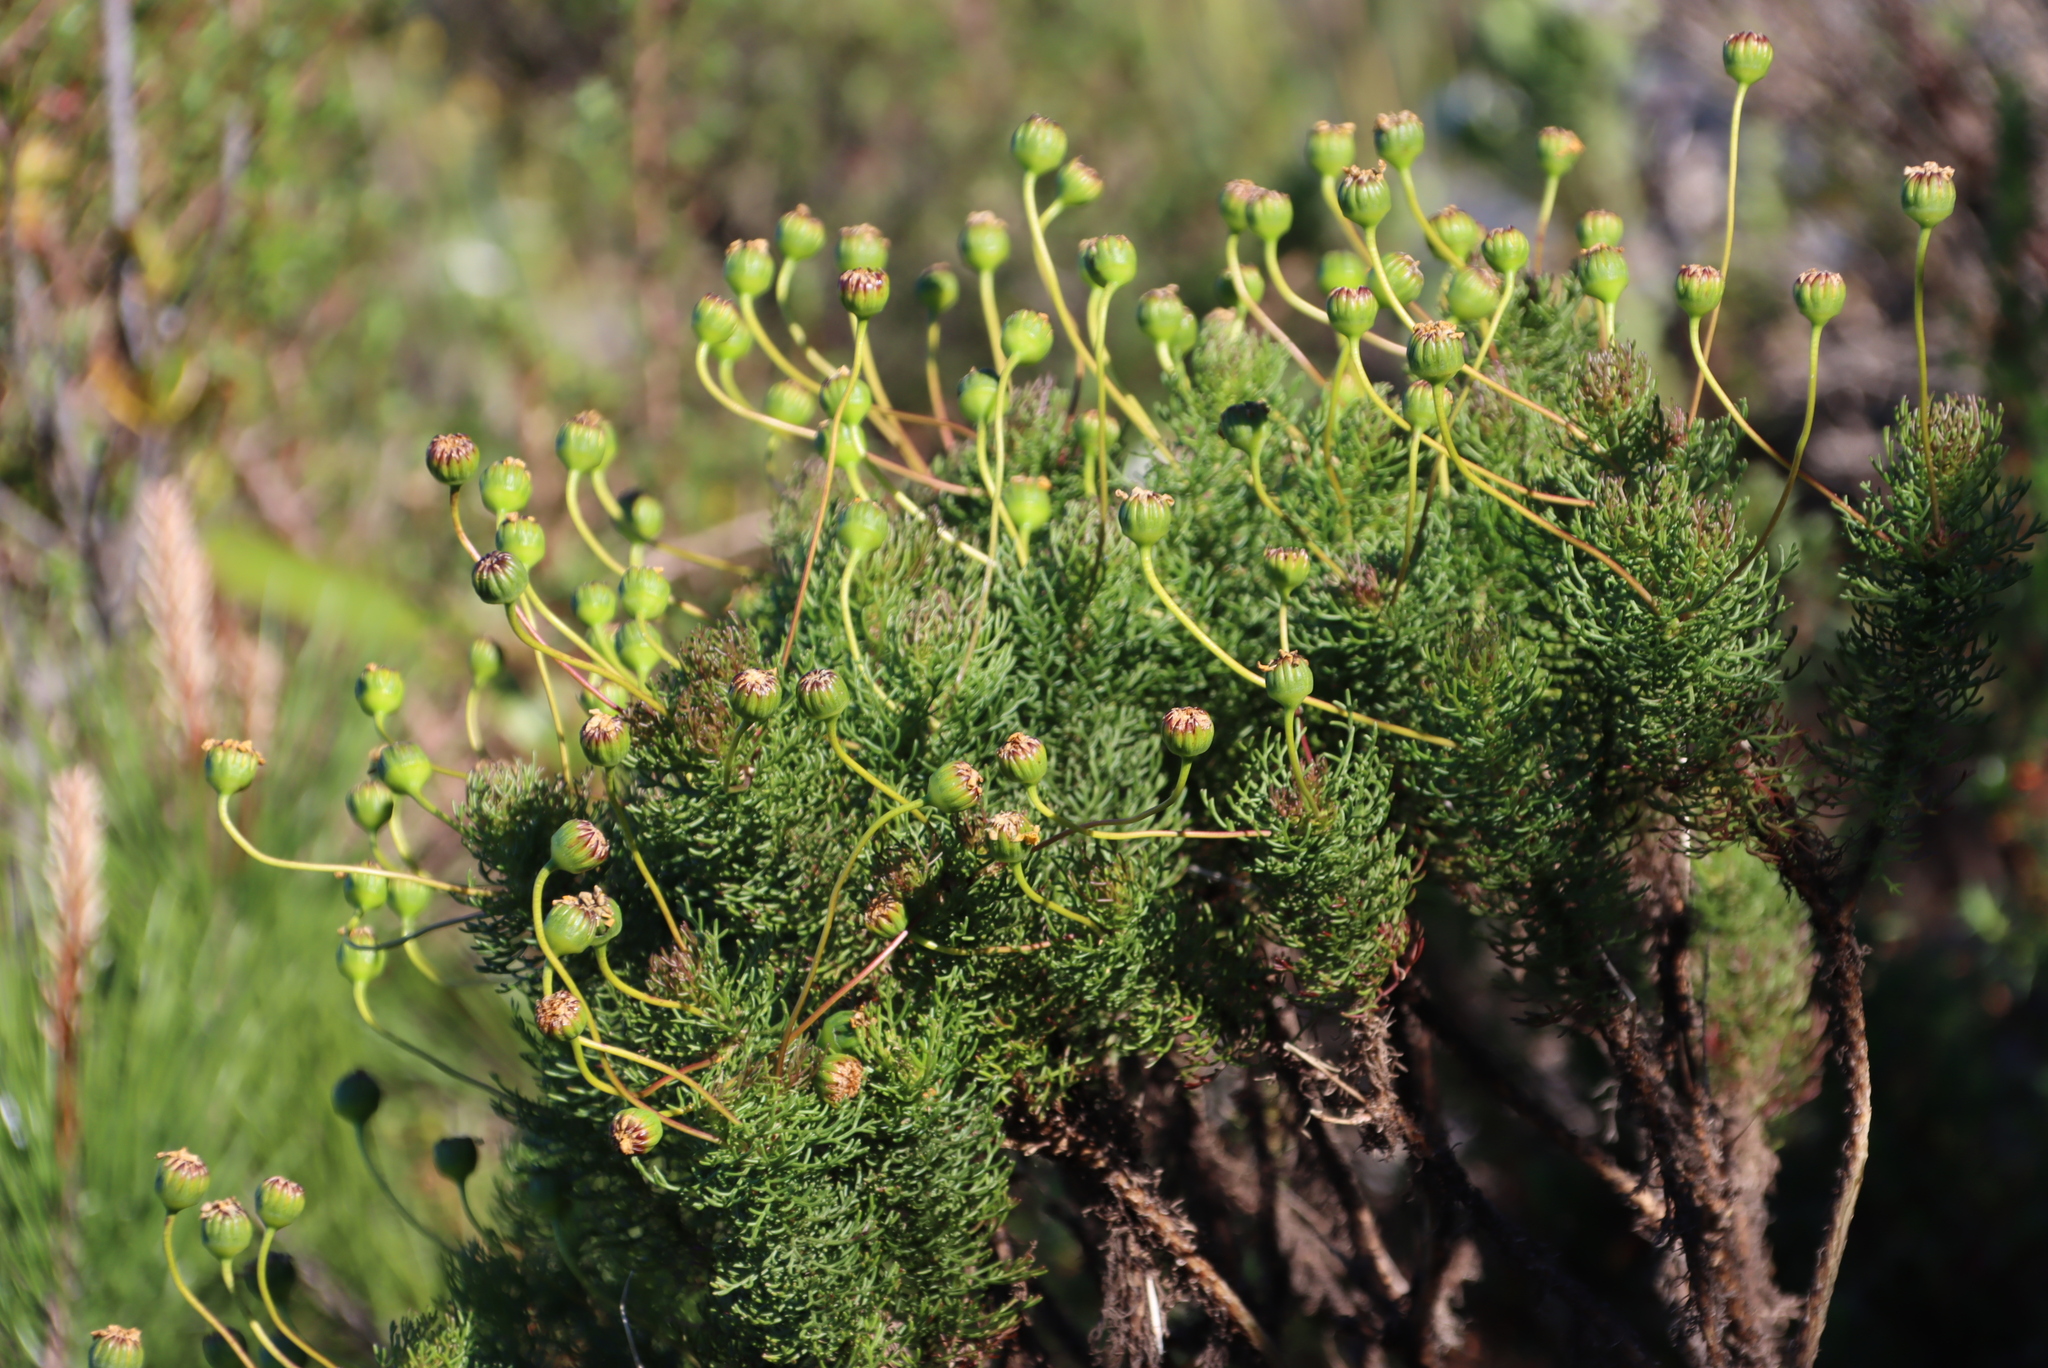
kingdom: Plantae
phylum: Tracheophyta
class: Magnoliopsida
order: Asterales
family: Asteraceae
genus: Euryops
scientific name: Euryops abrotanifolius
